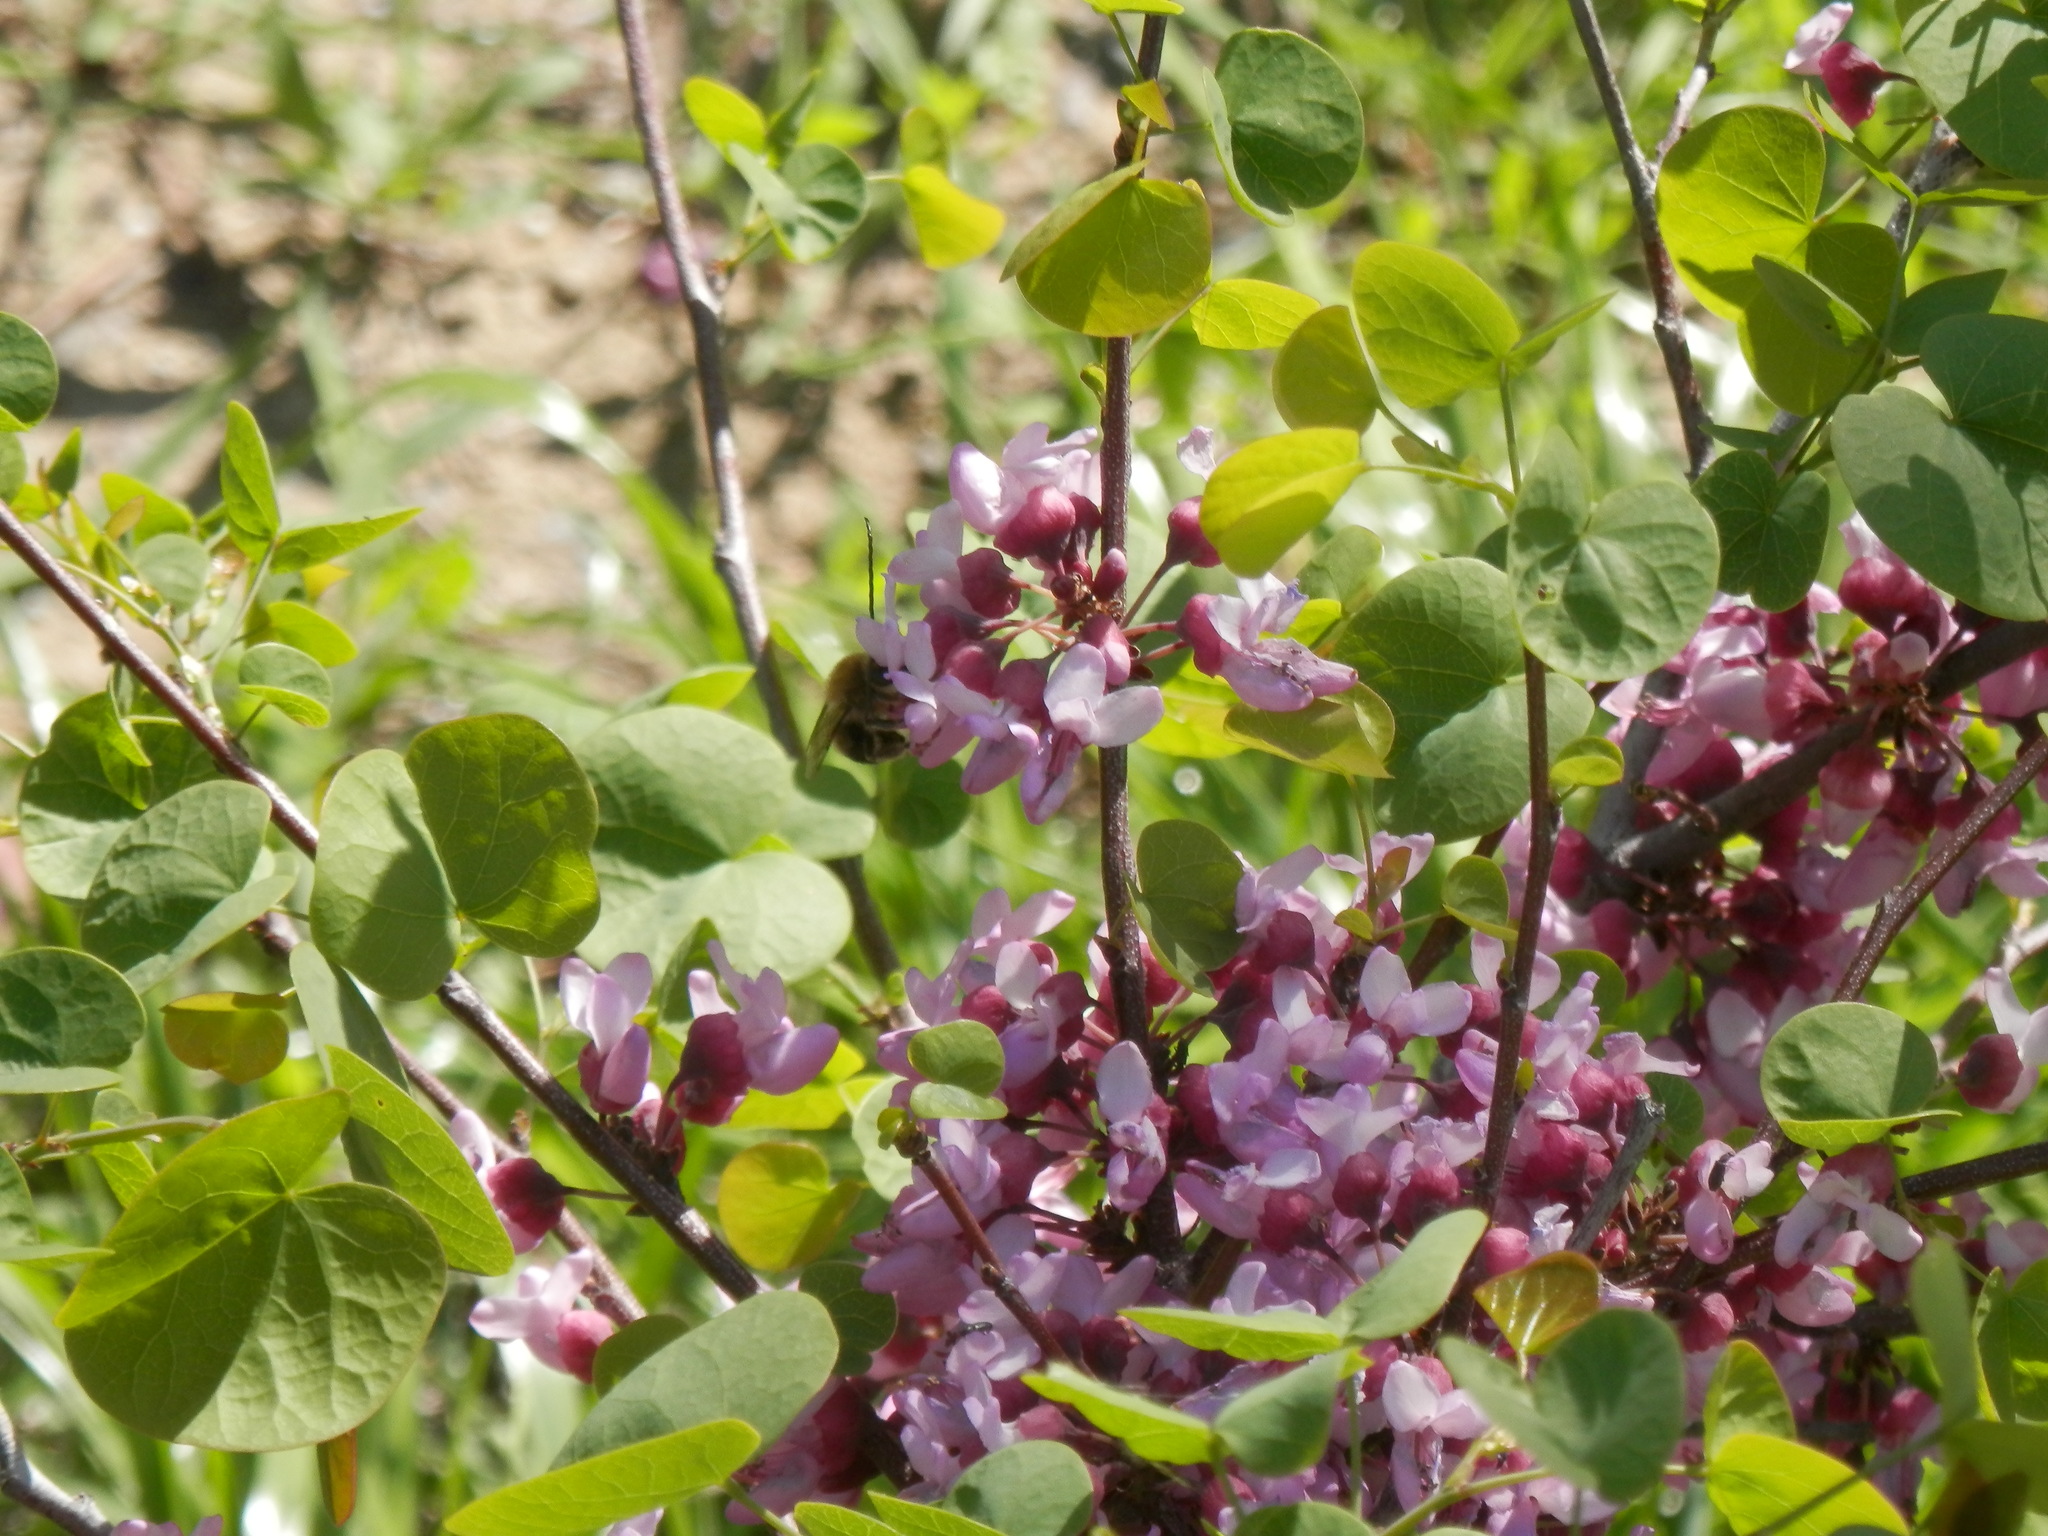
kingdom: Plantae
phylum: Tracheophyta
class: Magnoliopsida
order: Fabales
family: Fabaceae
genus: Cercis
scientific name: Cercis occidentalis
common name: California redbud
